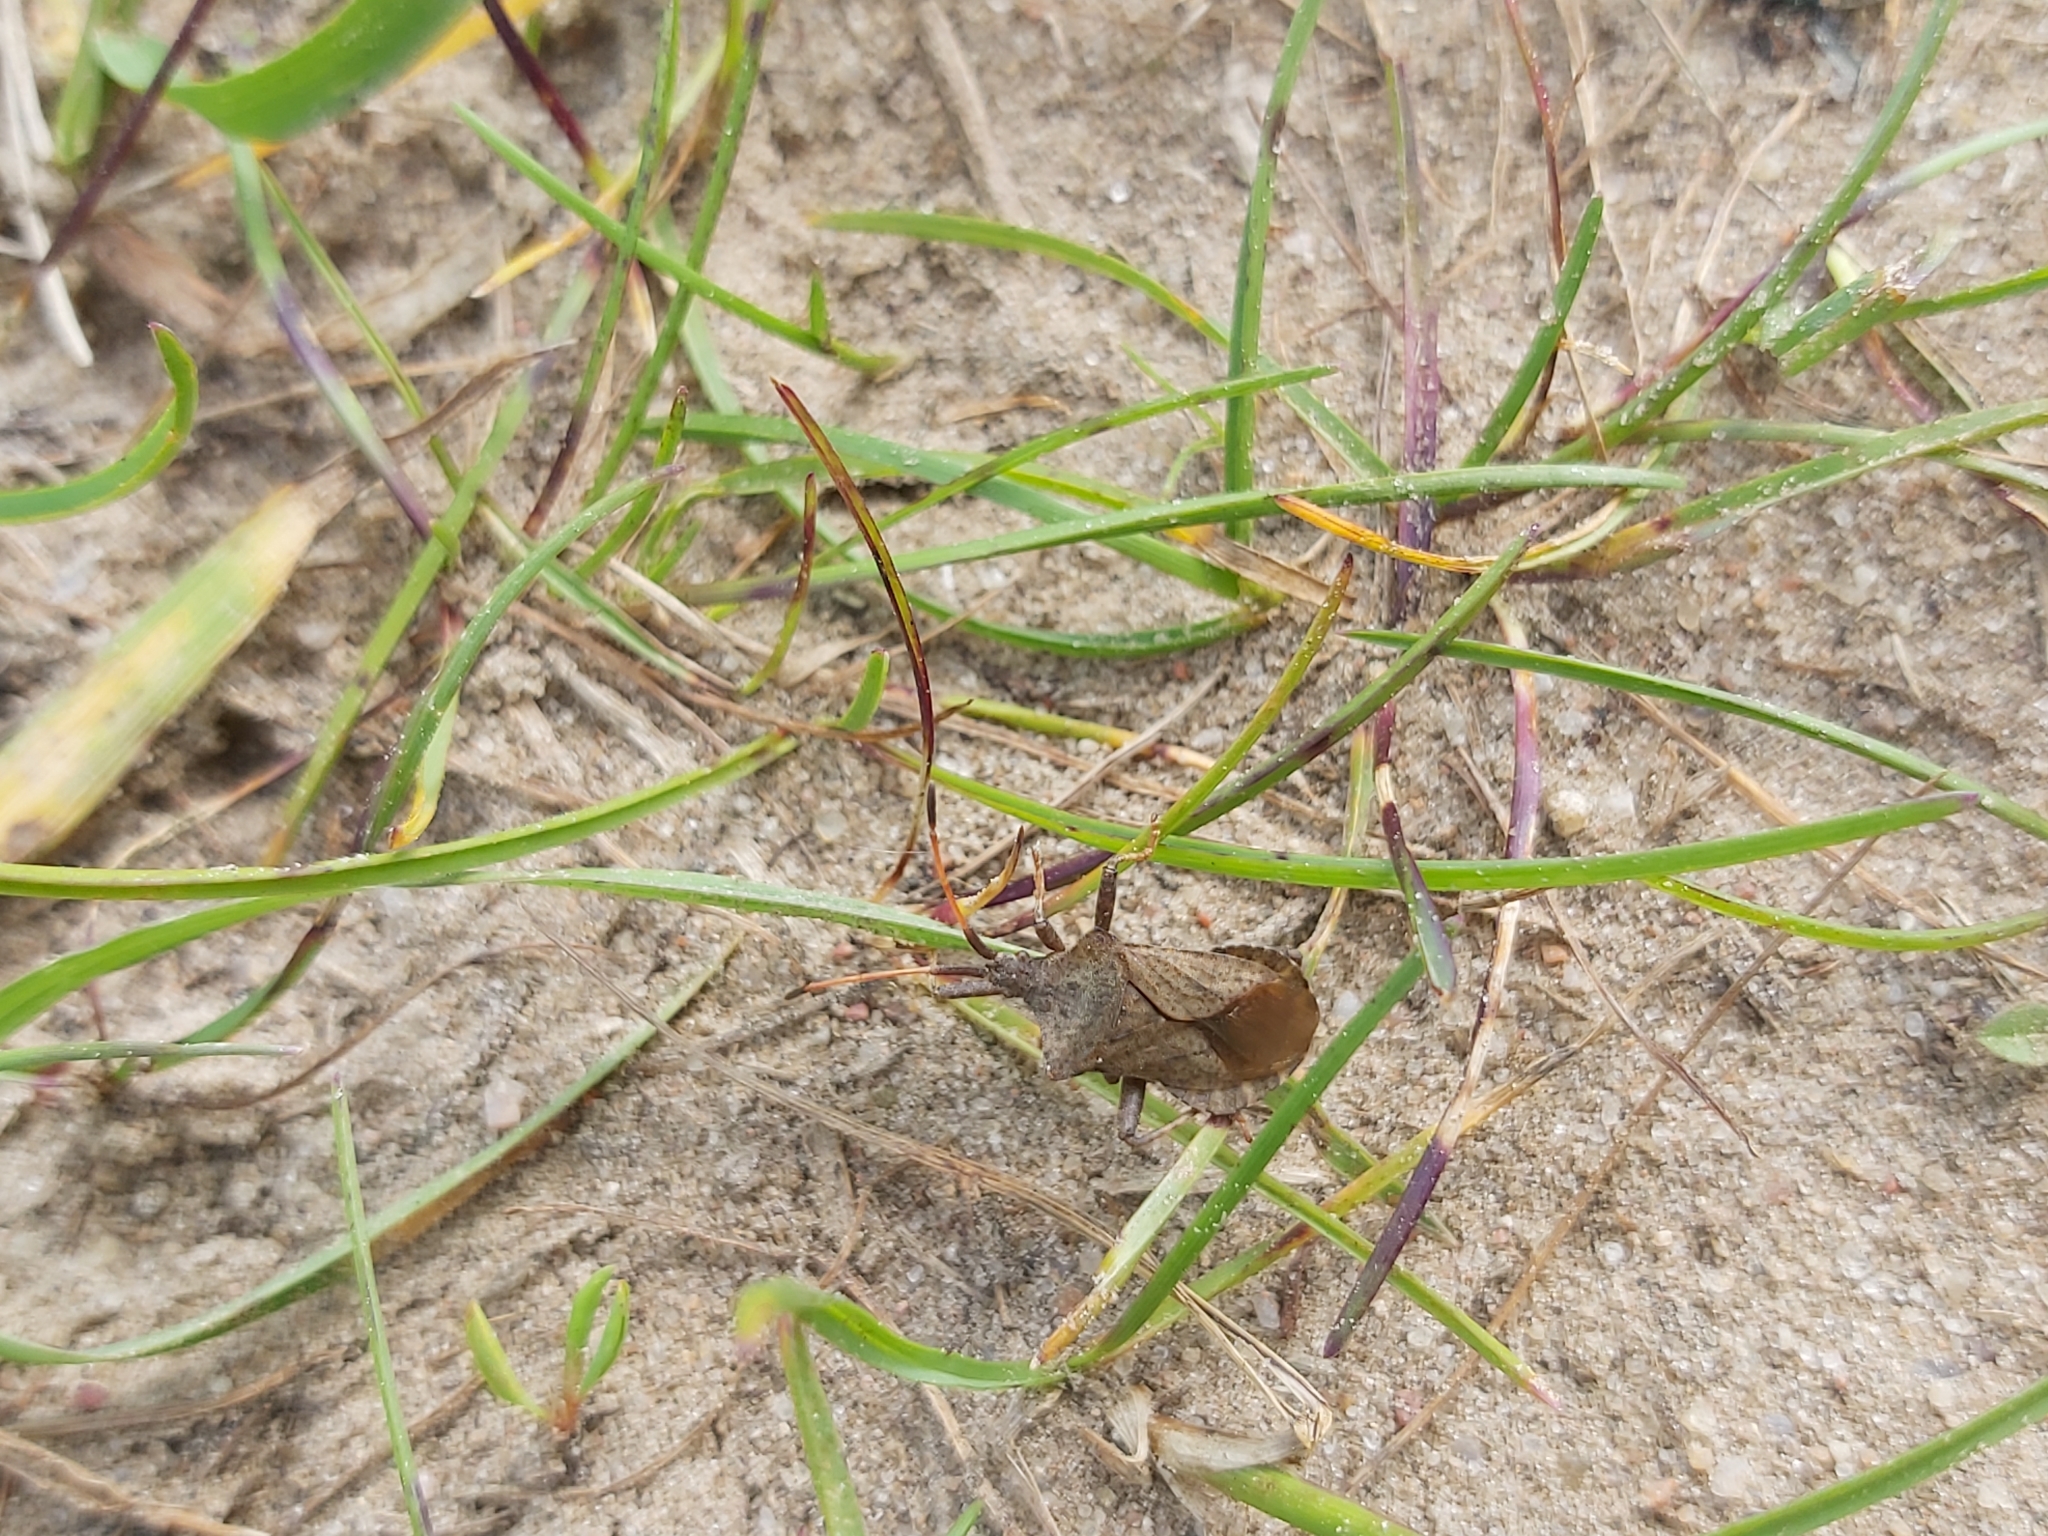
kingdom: Animalia
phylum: Arthropoda
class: Insecta
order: Hemiptera
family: Coreidae
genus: Coreus
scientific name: Coreus marginatus
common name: Dock bug
